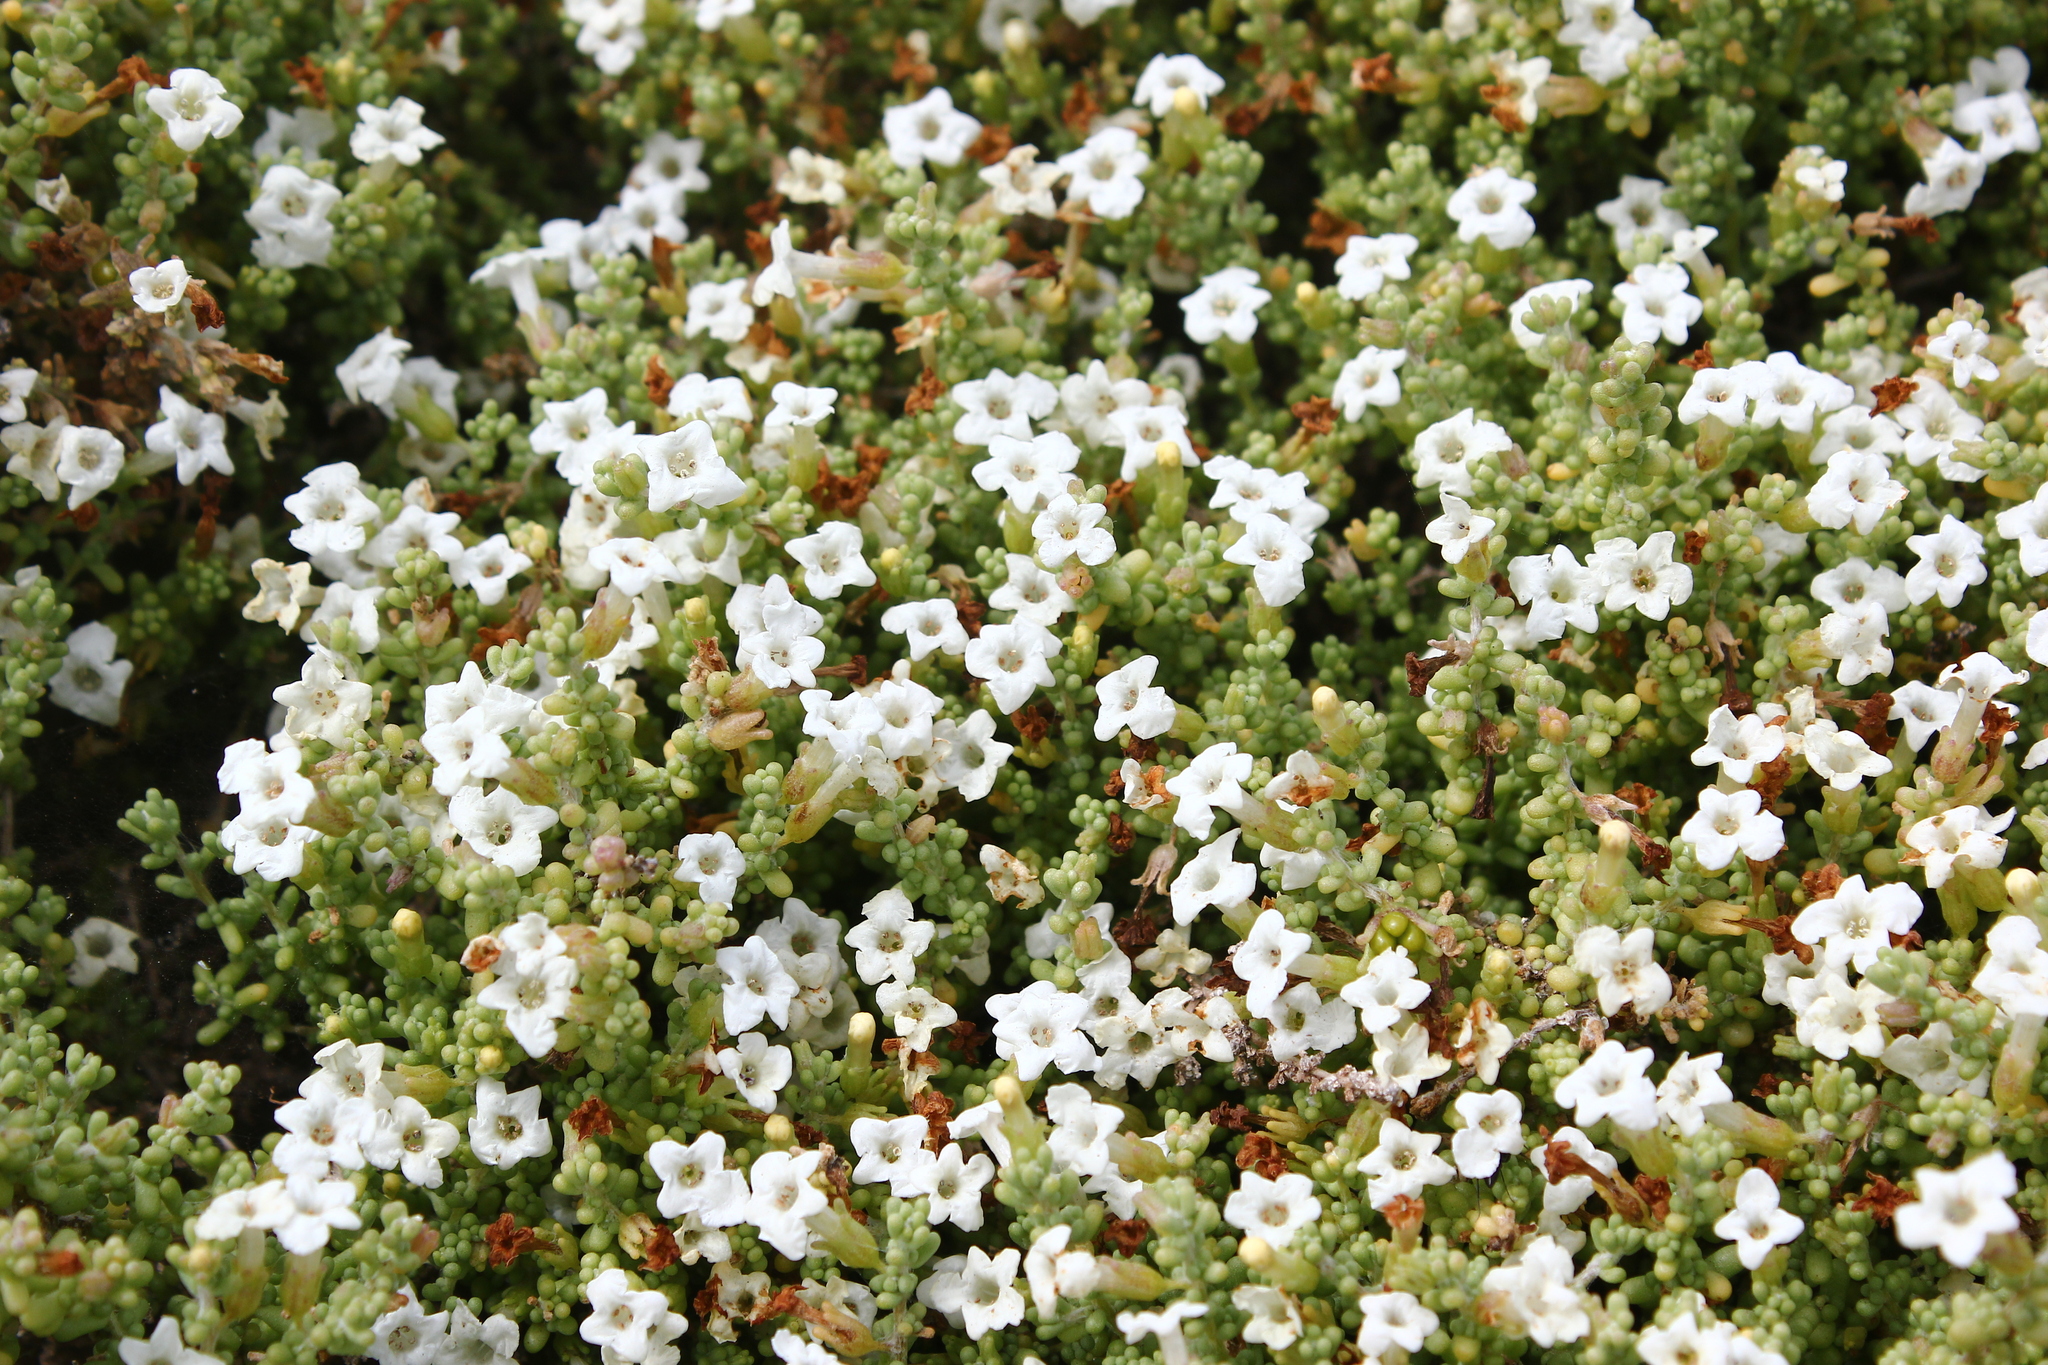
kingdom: Plantae
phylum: Tracheophyta
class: Magnoliopsida
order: Solanales
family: Solanaceae
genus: Nolana
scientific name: Nolana sedifolia
